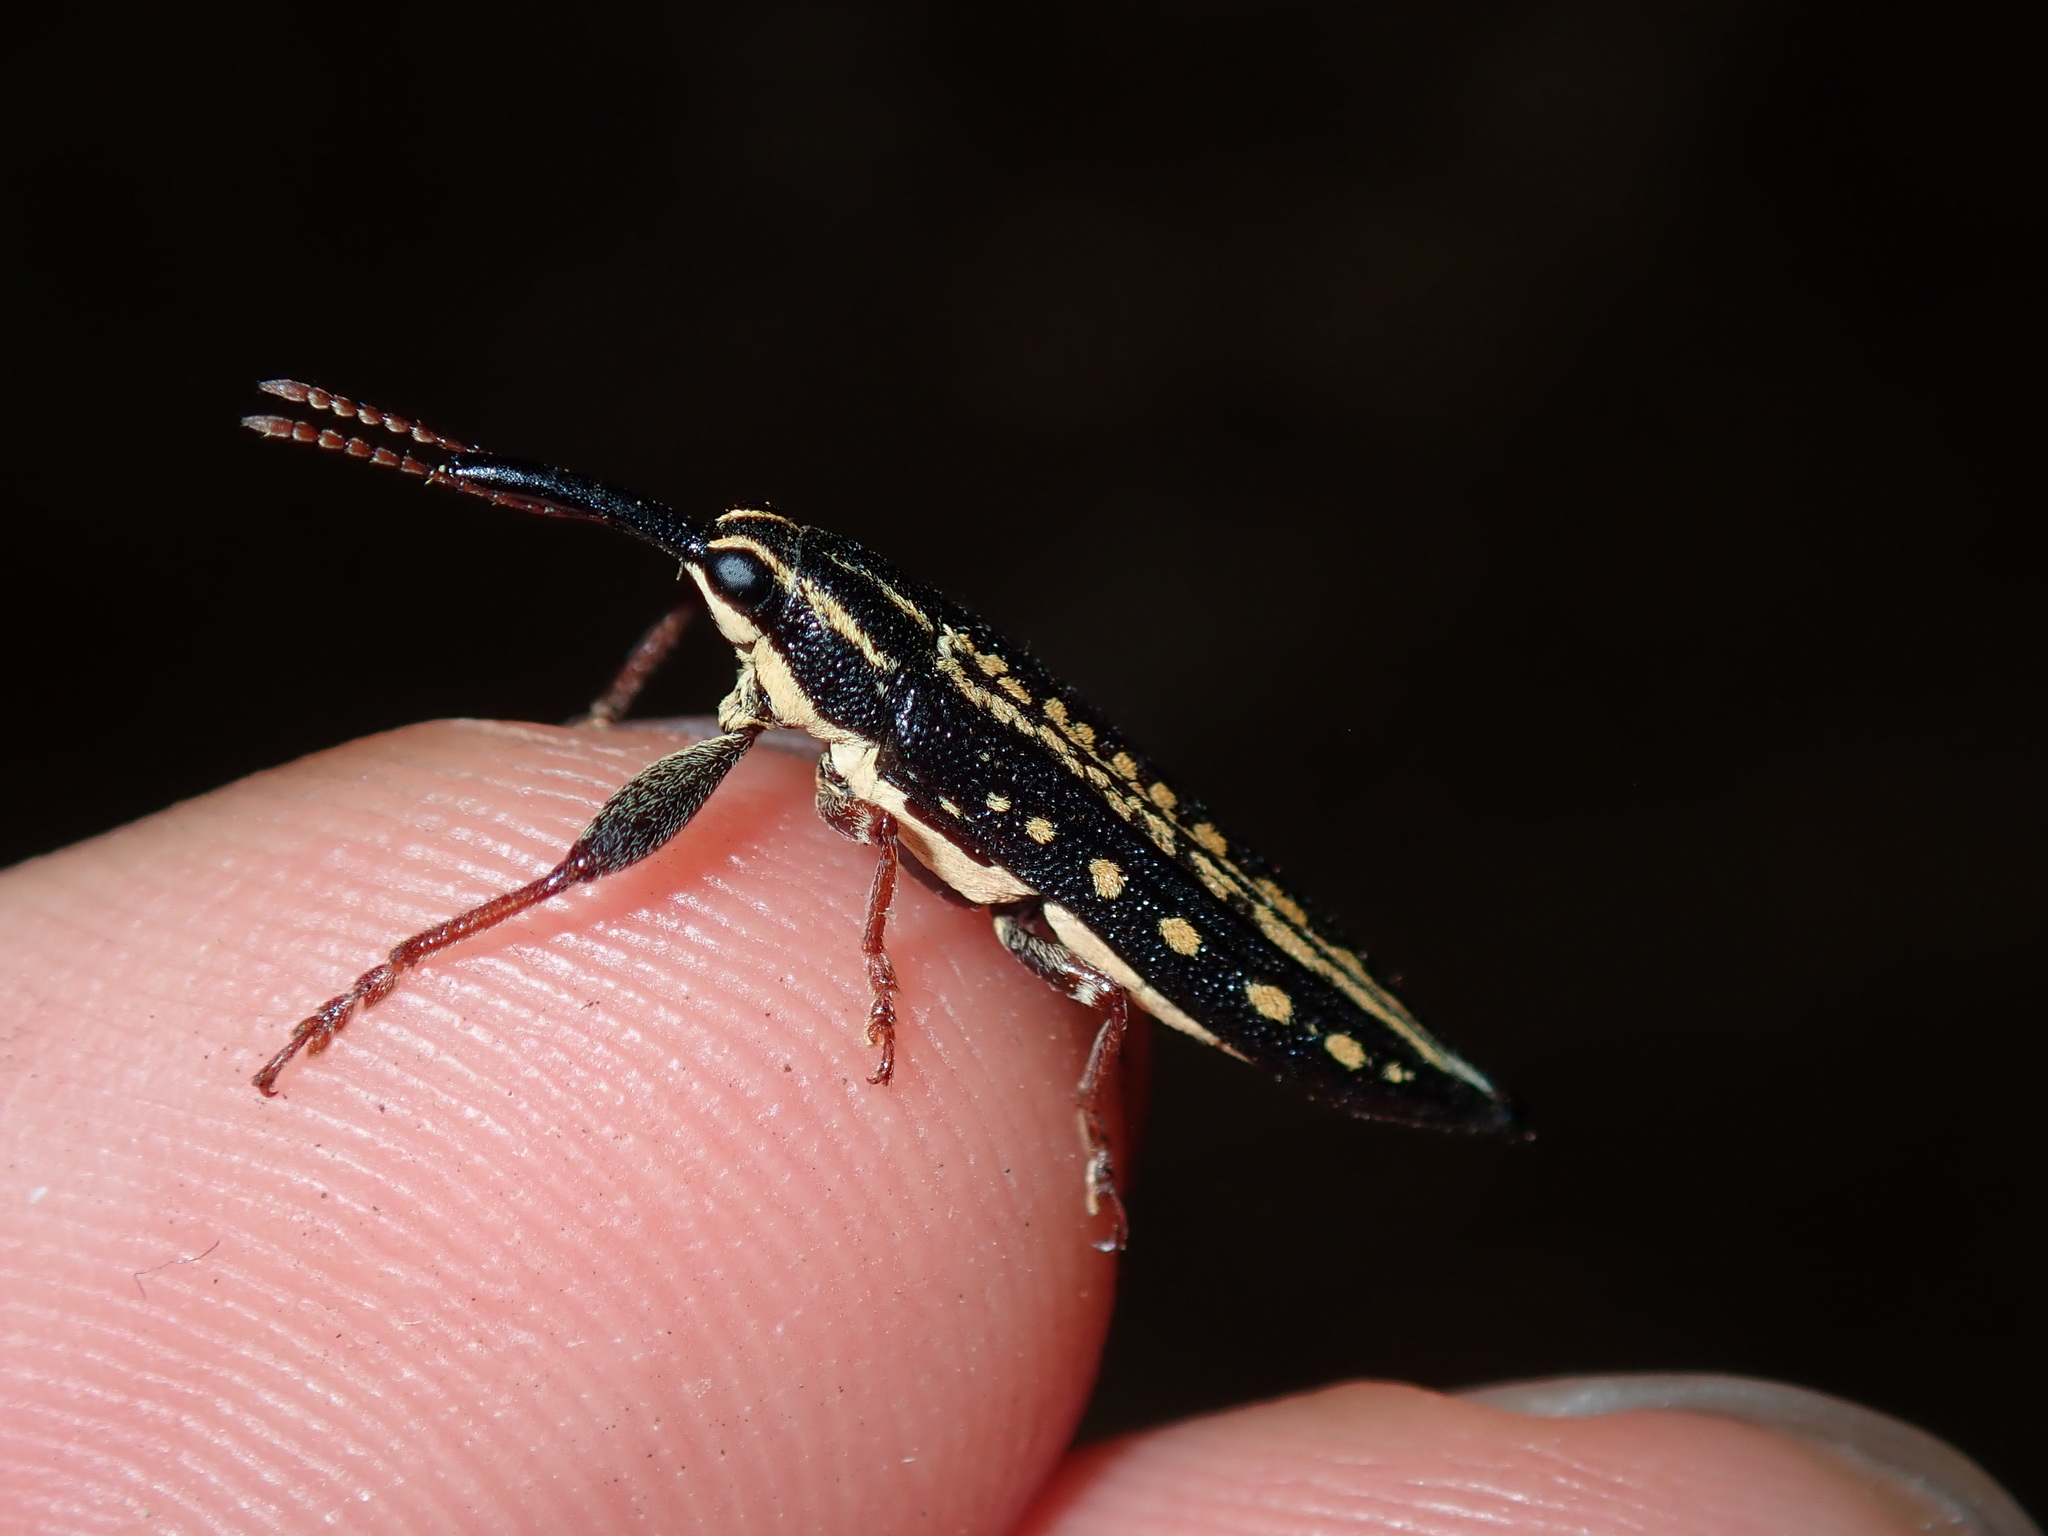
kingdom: Animalia
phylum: Arthropoda
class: Insecta
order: Coleoptera
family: Belidae
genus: Rhinotia
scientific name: Rhinotia lineata
